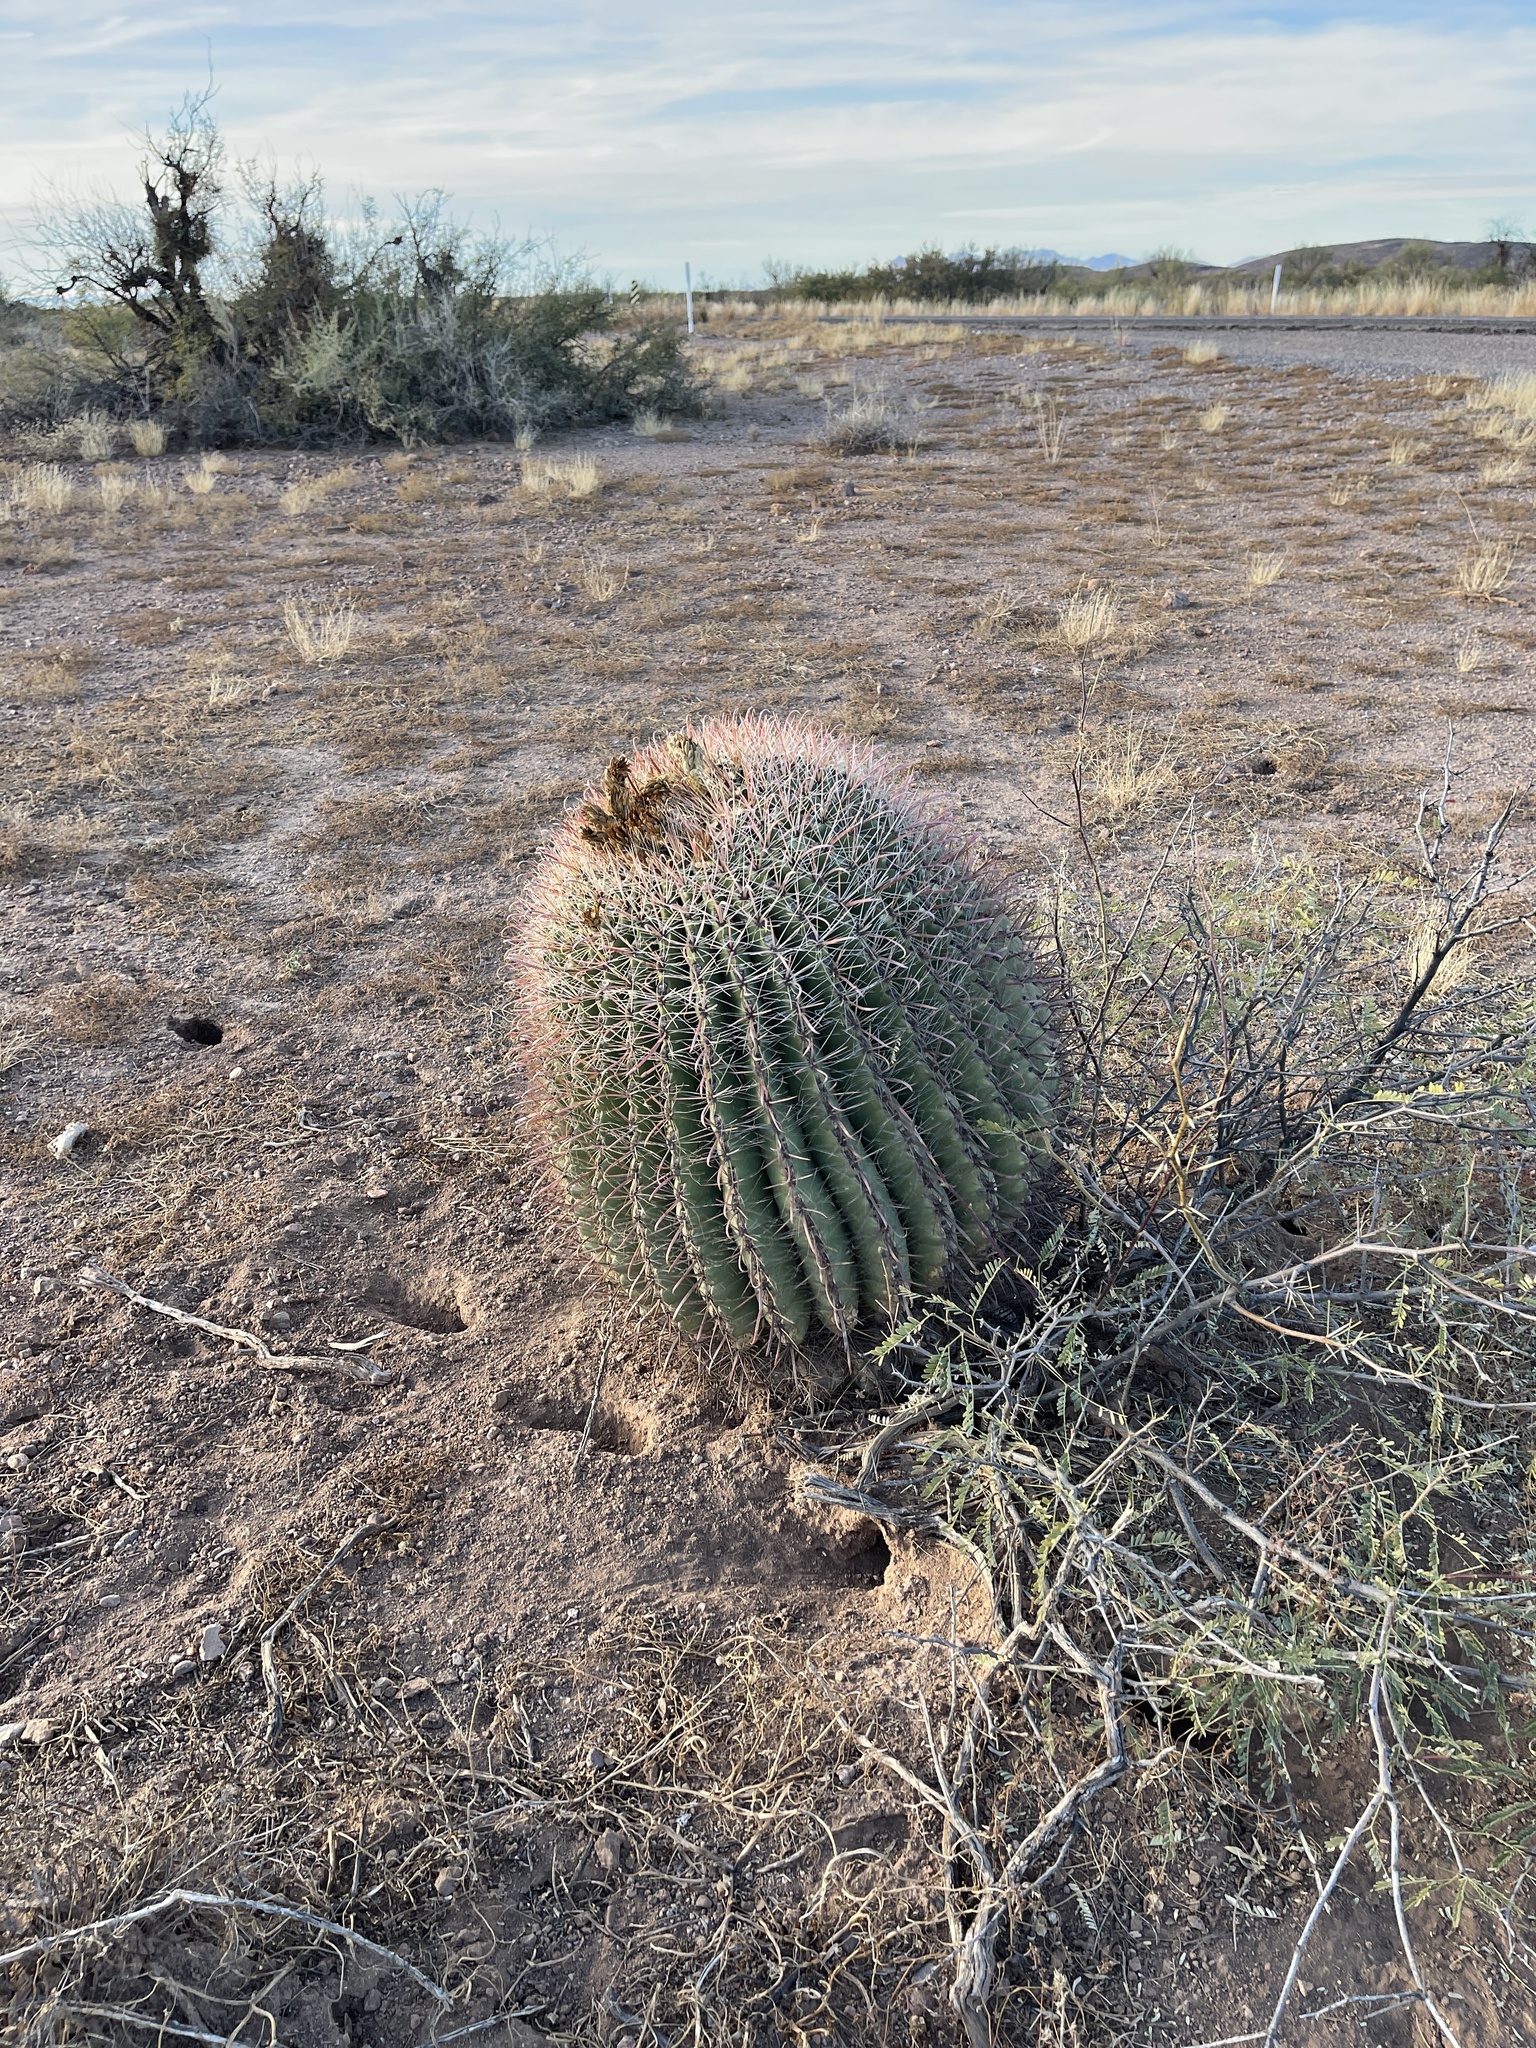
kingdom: Plantae
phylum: Tracheophyta
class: Magnoliopsida
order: Caryophyllales
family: Cactaceae
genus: Ferocactus
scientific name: Ferocactus wislizeni
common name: Candy barrel cactus
